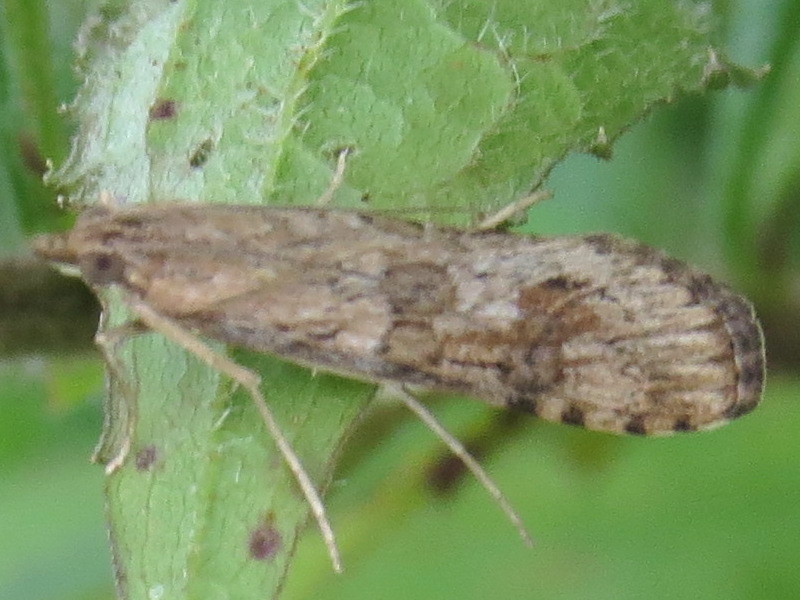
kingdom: Animalia
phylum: Arthropoda
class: Insecta
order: Lepidoptera
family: Crambidae
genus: Nomophila
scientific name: Nomophila nearctica
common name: American rush veneer
